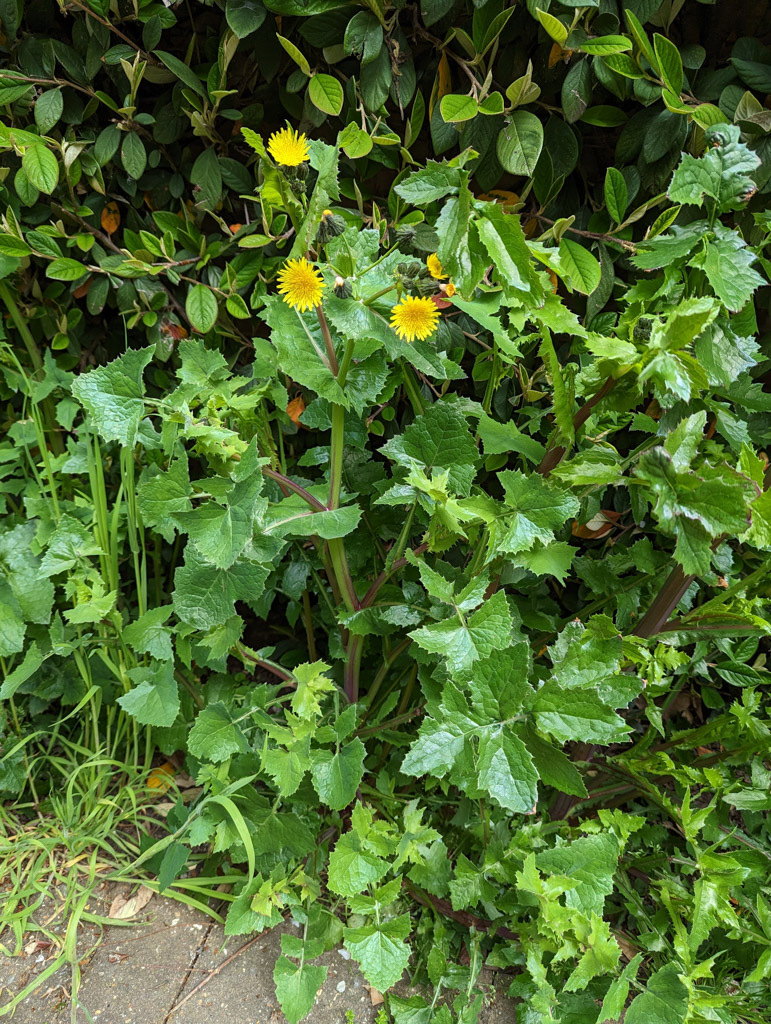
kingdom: Plantae
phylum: Tracheophyta
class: Magnoliopsida
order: Asterales
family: Asteraceae
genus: Sonchus
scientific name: Sonchus oleraceus
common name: Common sowthistle
